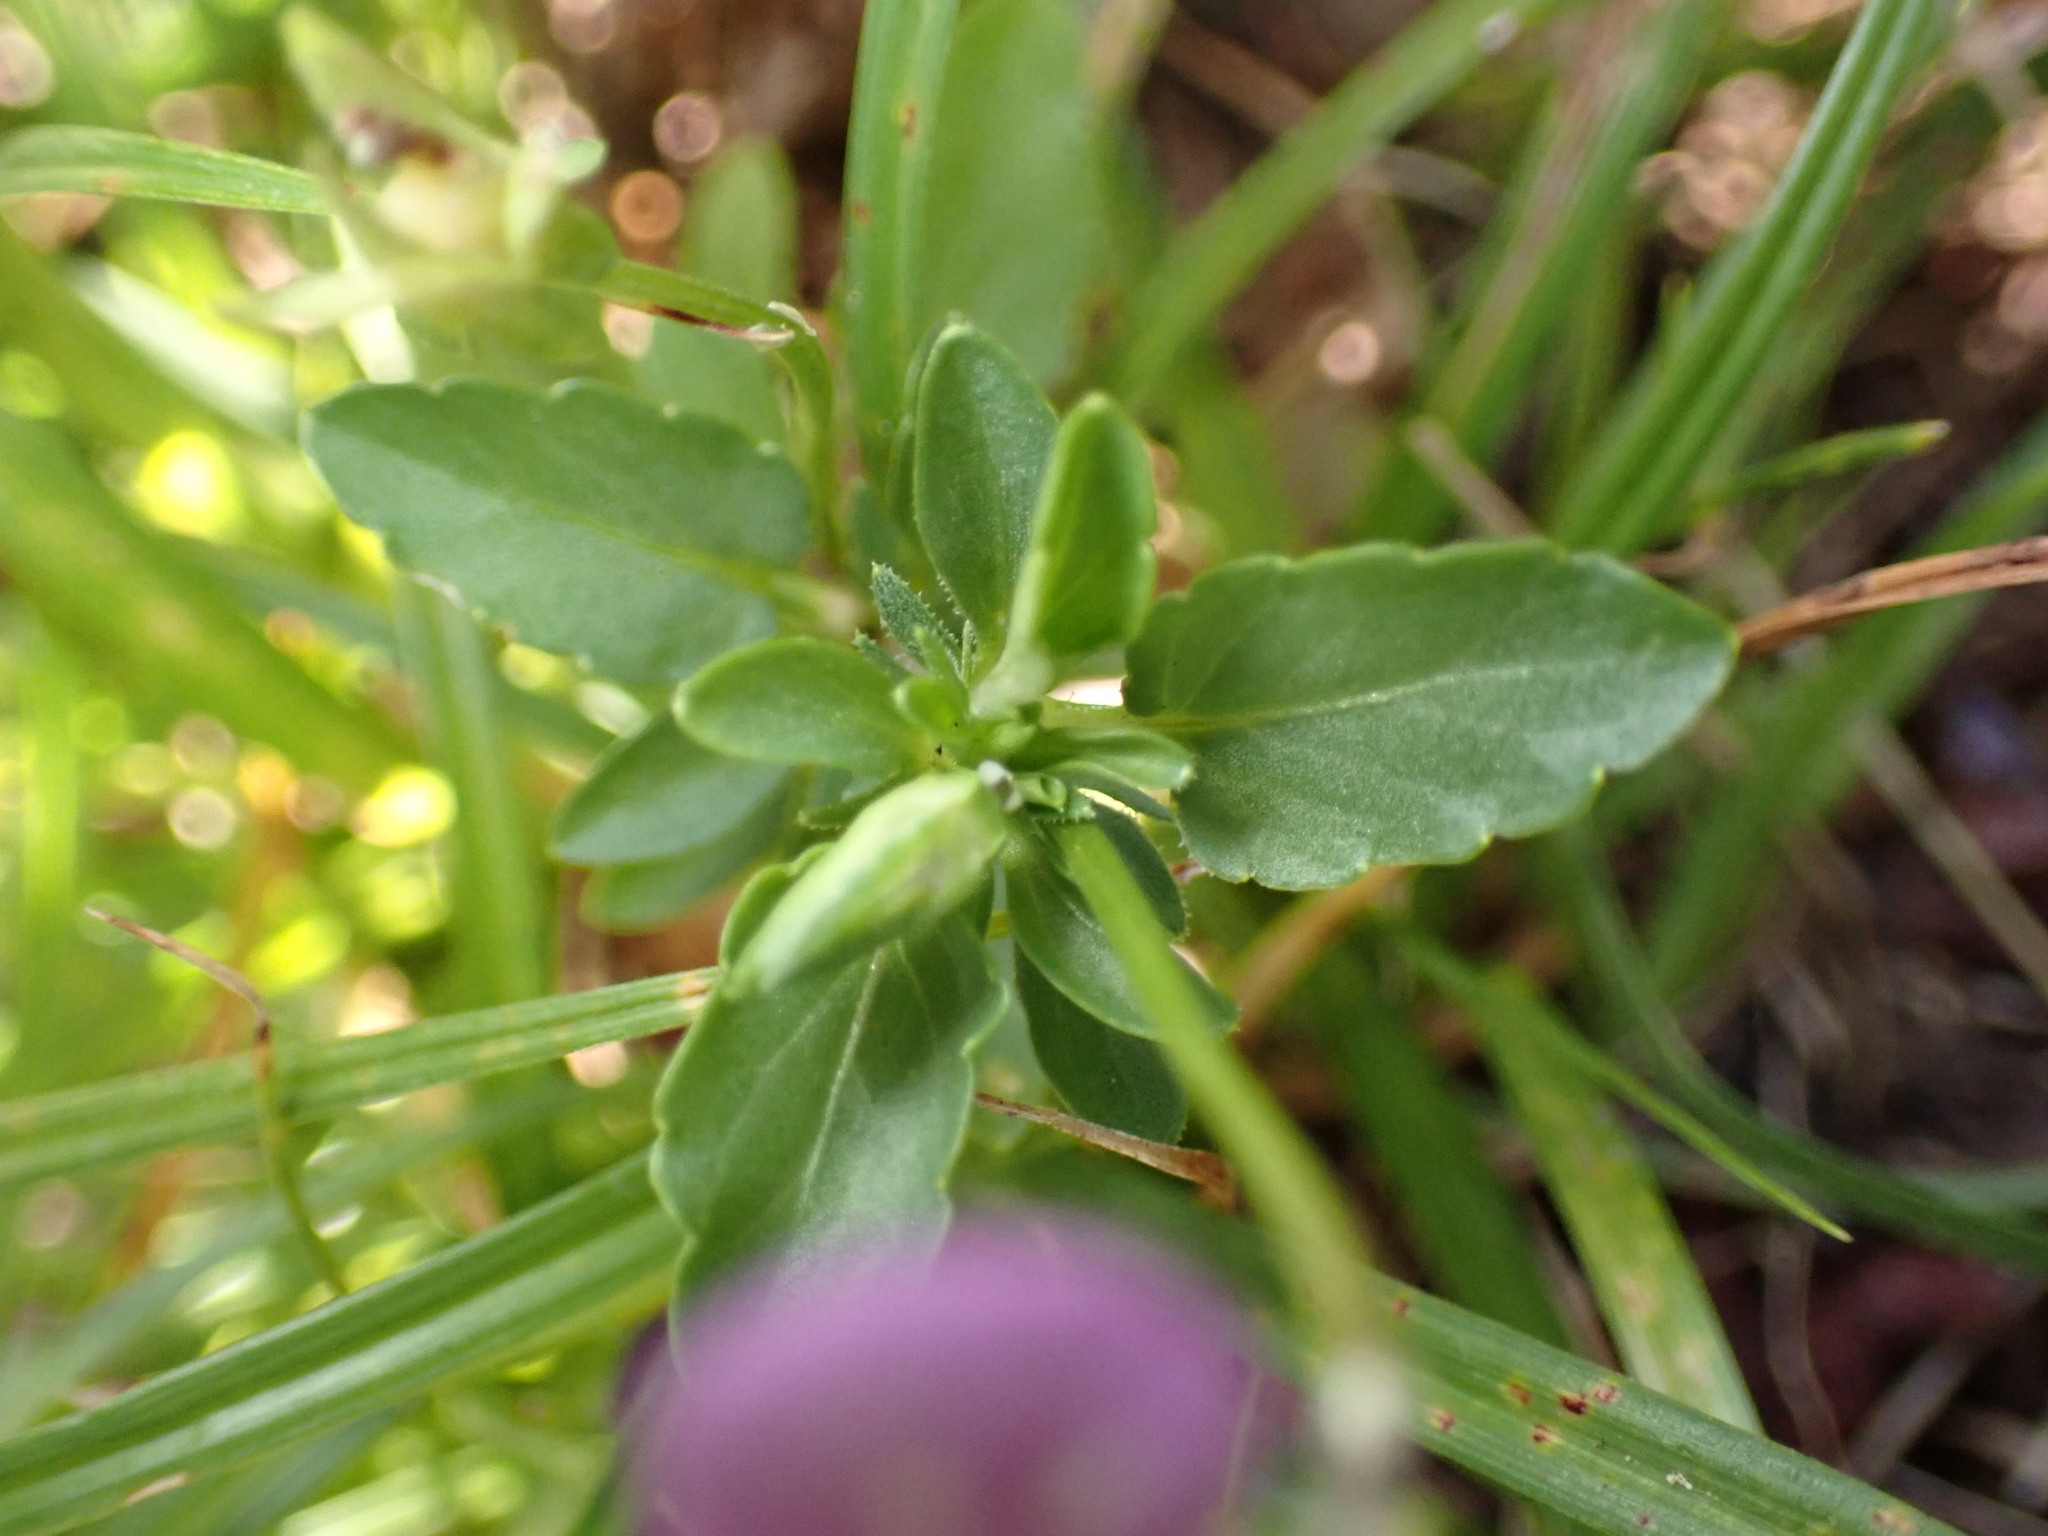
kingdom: Plantae
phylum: Tracheophyta
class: Magnoliopsida
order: Malpighiales
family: Violaceae
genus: Viola
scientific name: Viola tricolor
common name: Pansy
